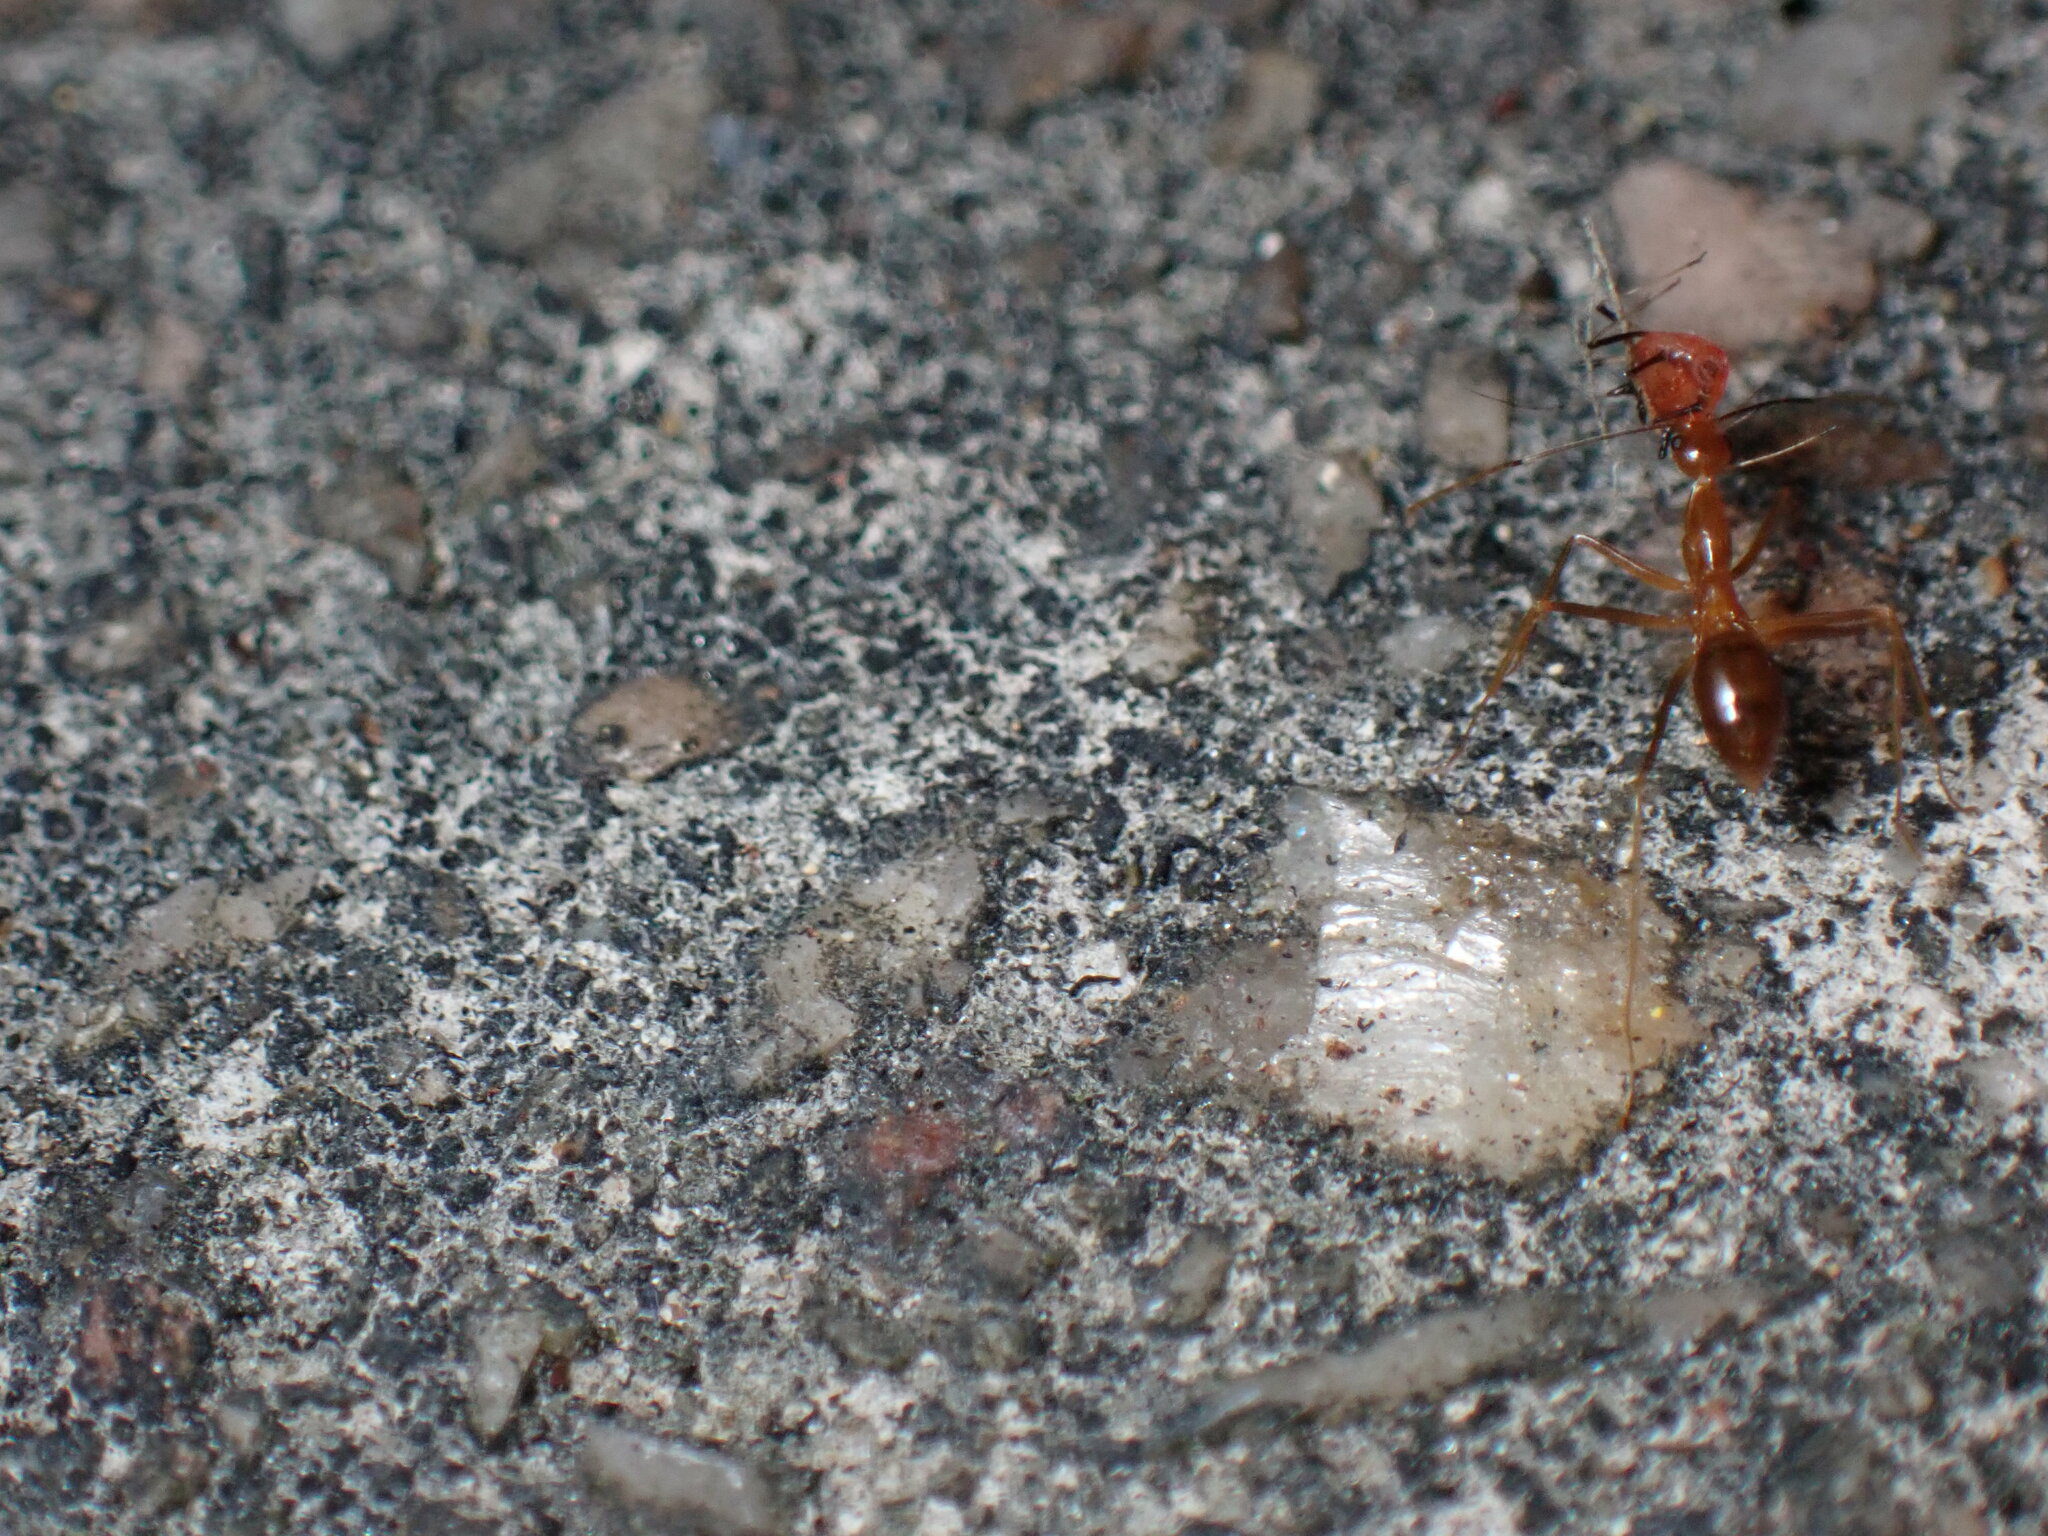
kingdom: Animalia
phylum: Arthropoda
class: Insecta
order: Hymenoptera
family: Formicidae
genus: Anoplolepis
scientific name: Anoplolepis gracilipes
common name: Ant
